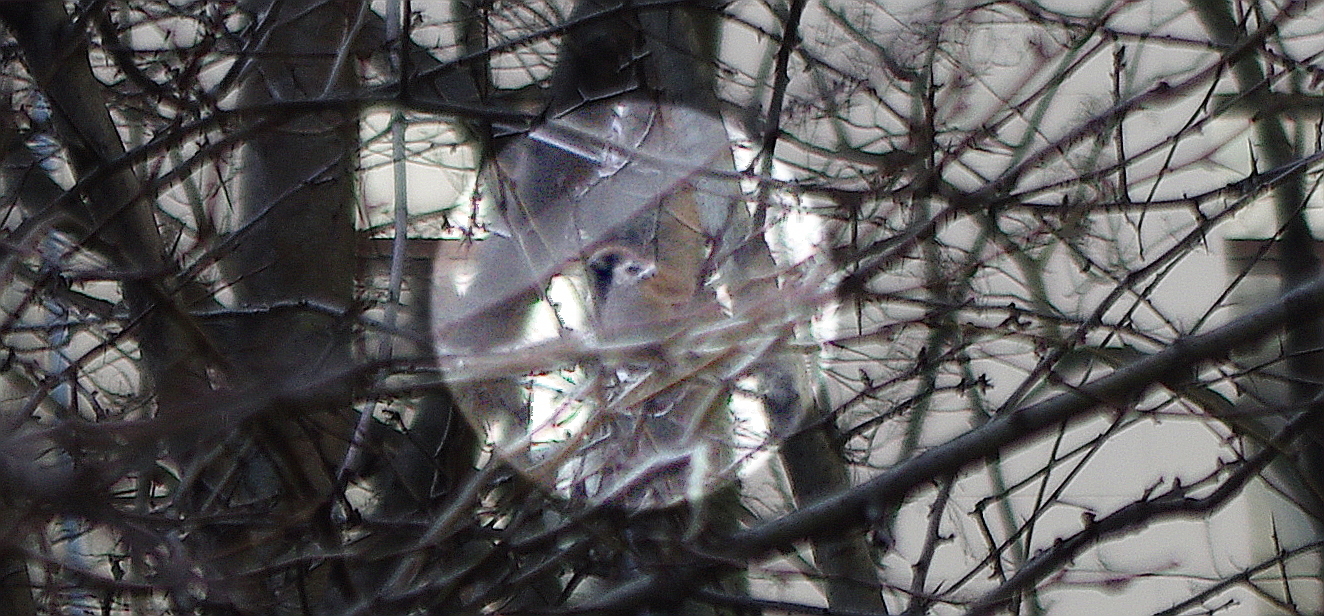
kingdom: Animalia
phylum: Chordata
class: Aves
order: Passeriformes
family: Passeridae
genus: Passer
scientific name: Passer montanus
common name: Eurasian tree sparrow
